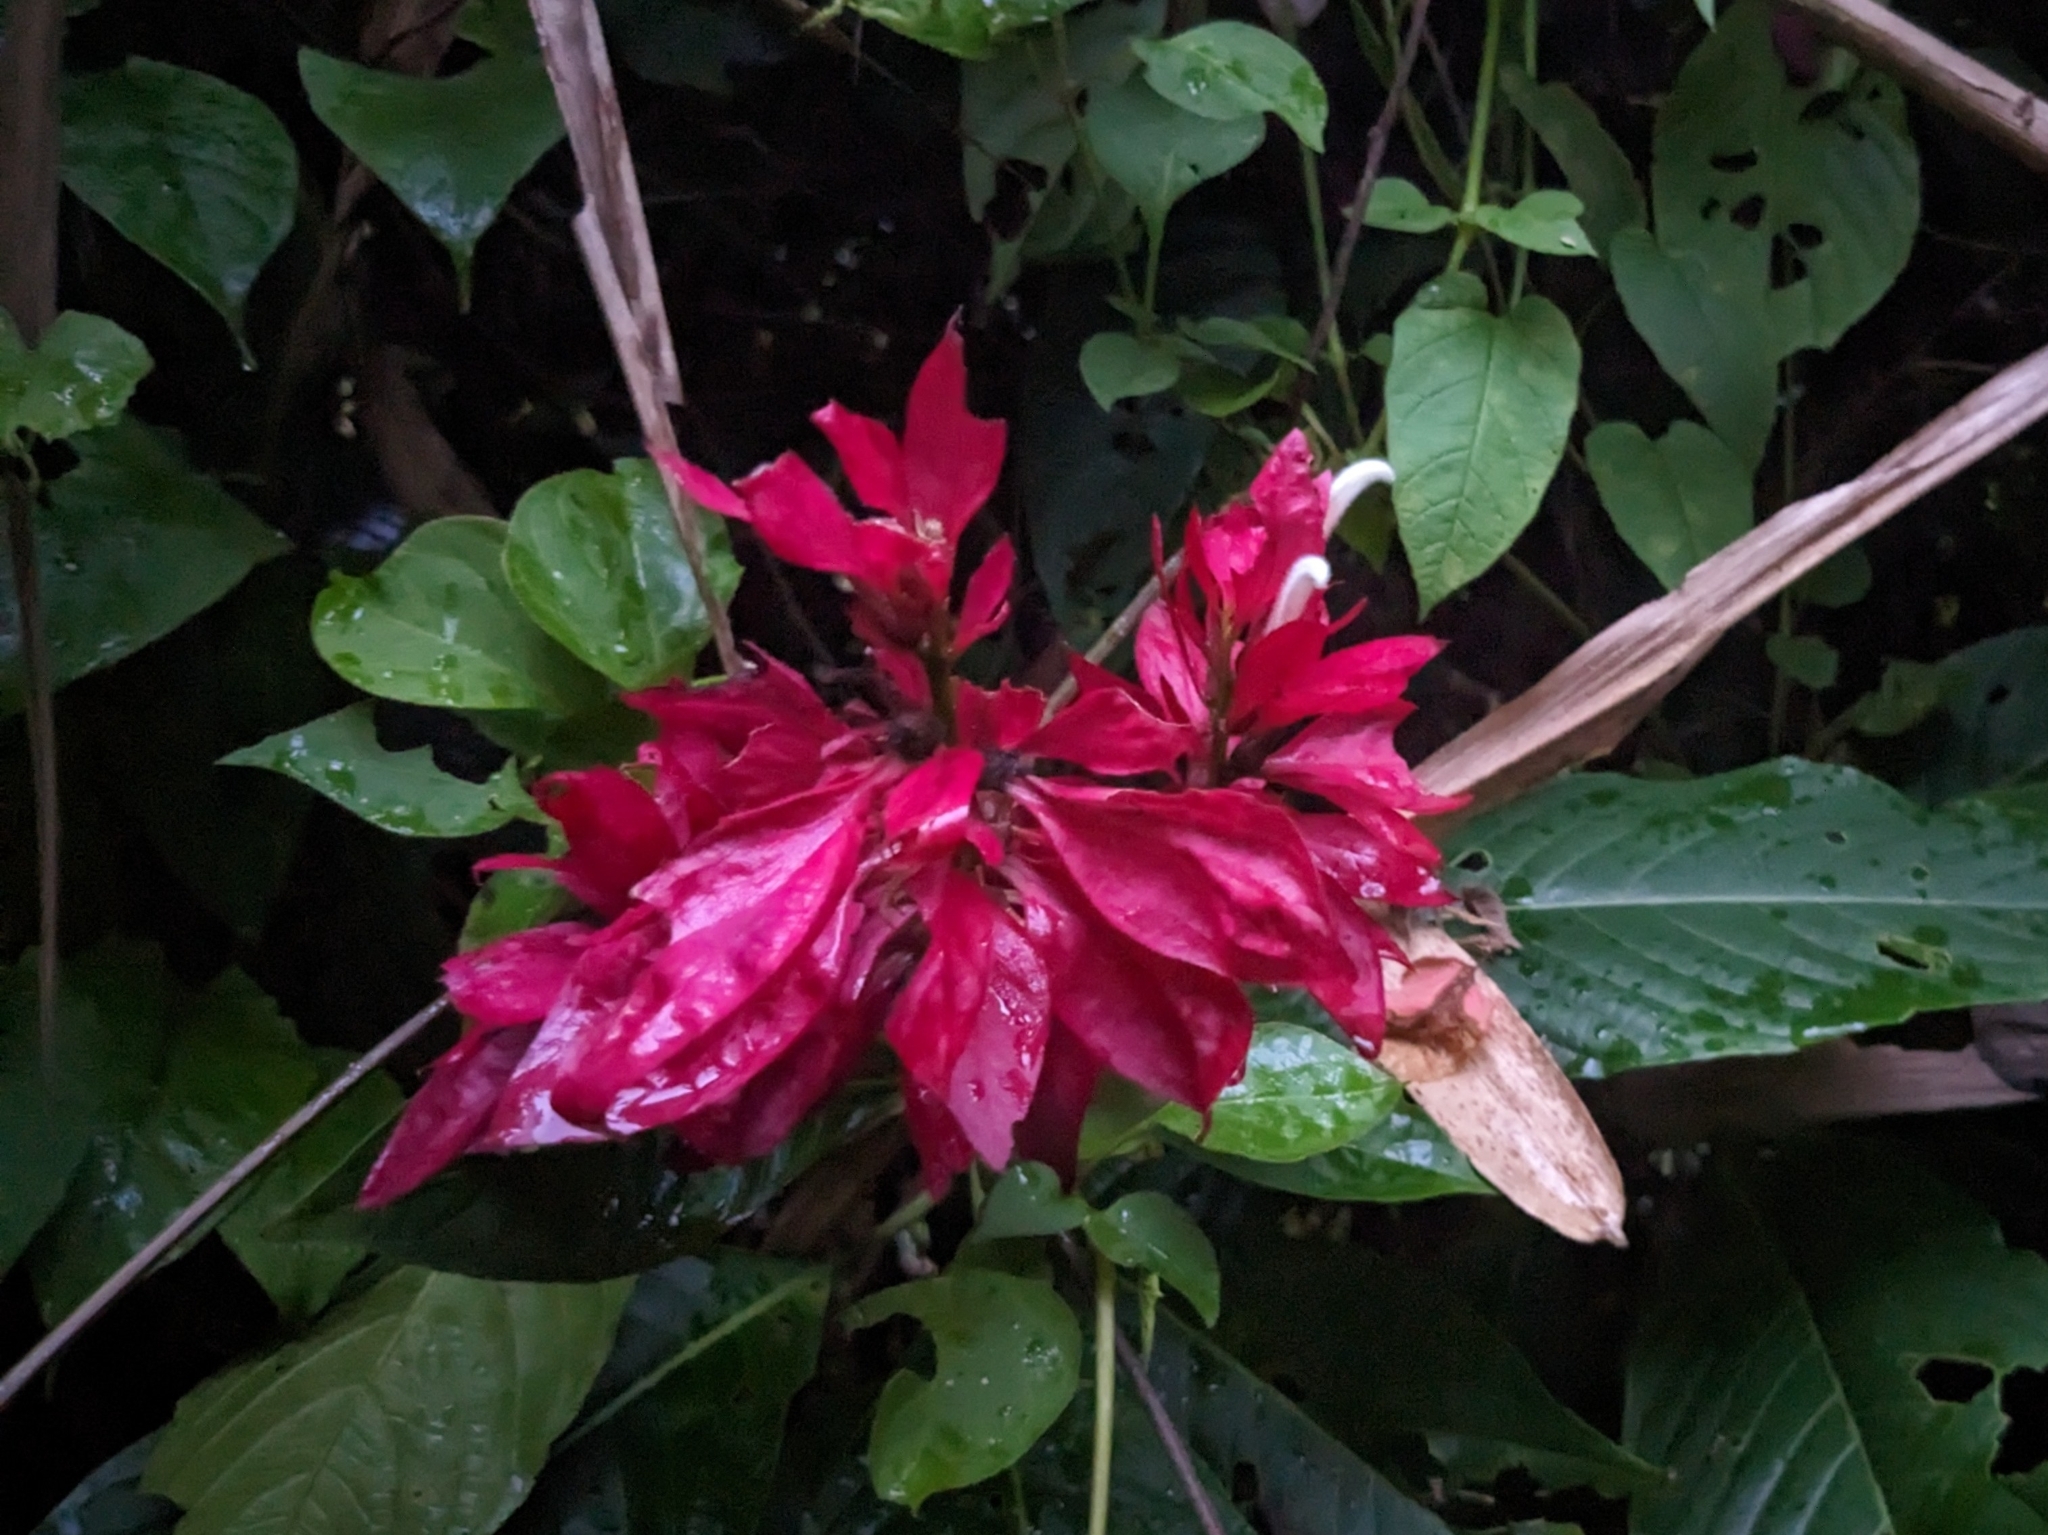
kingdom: Plantae
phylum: Tracheophyta
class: Magnoliopsida
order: Lamiales
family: Acanthaceae
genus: Megaskepasma
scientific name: Megaskepasma erythrochlamys
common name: Brazilian red-cloak
